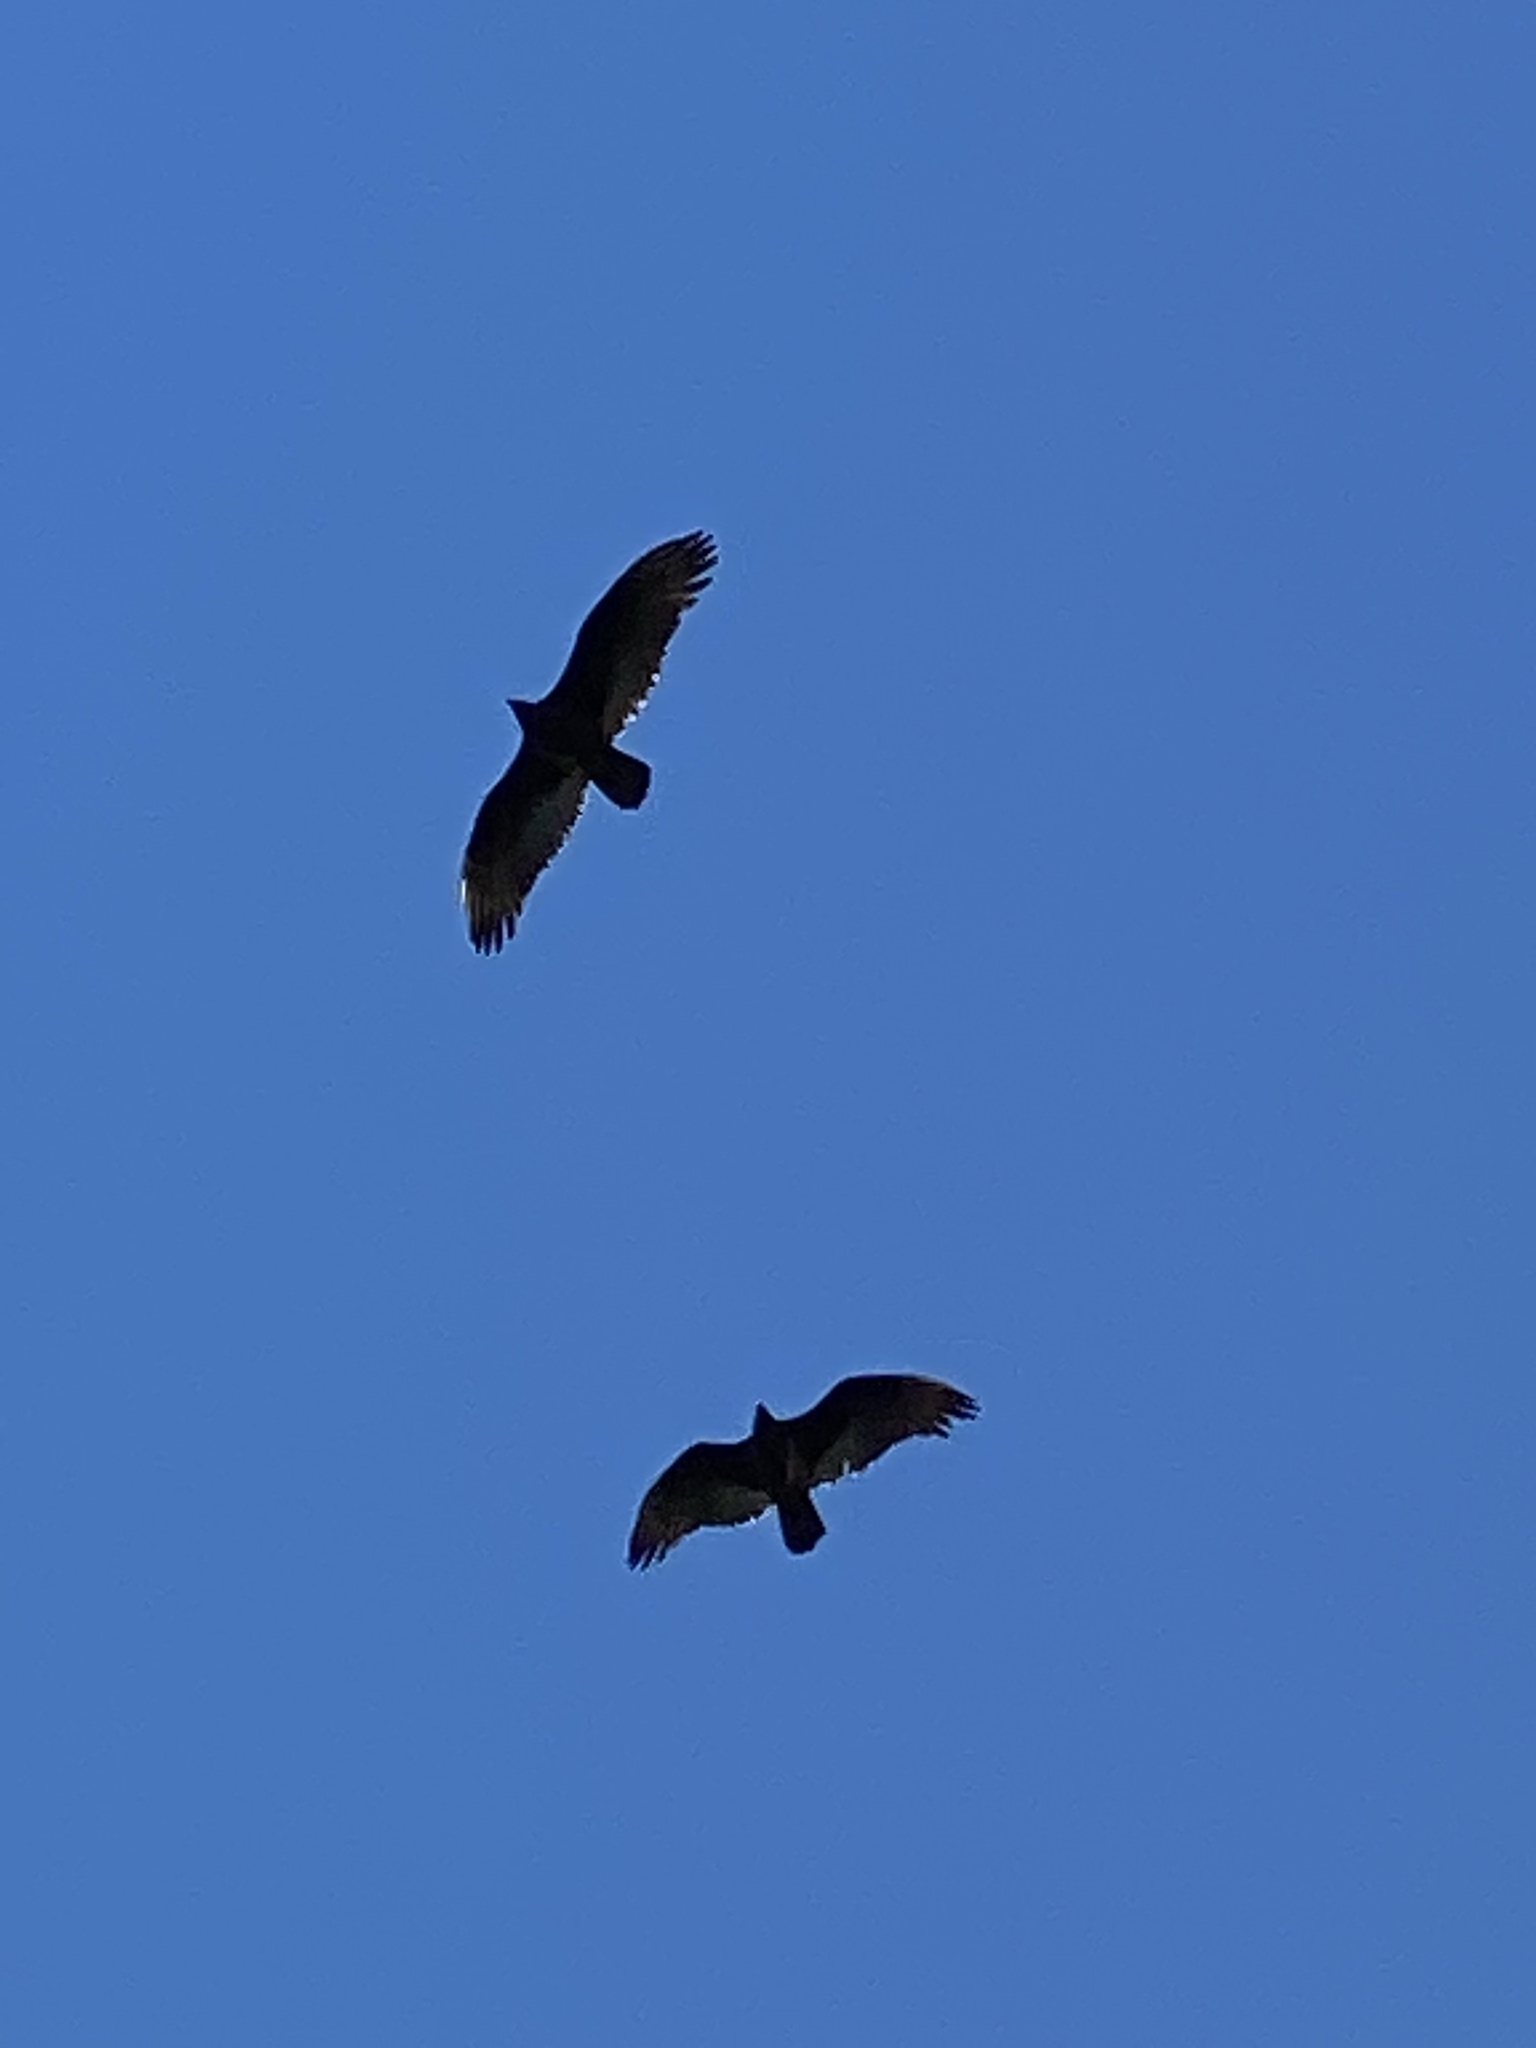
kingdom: Animalia
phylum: Chordata
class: Aves
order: Accipitriformes
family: Cathartidae
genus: Cathartes
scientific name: Cathartes aura
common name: Turkey vulture
